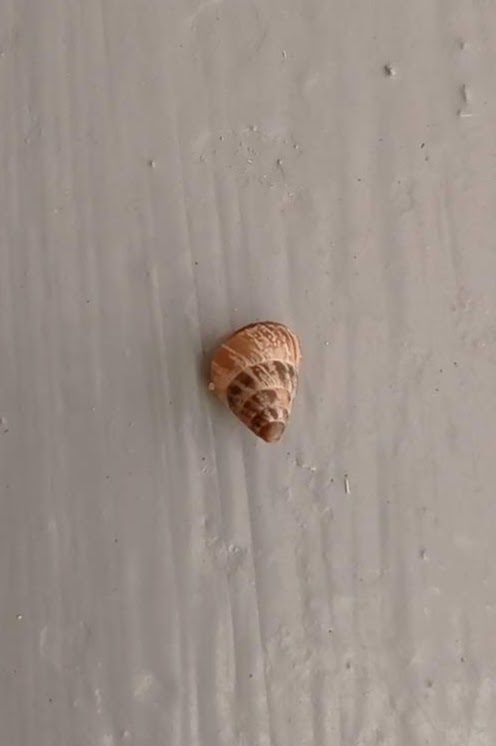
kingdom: Animalia
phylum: Mollusca
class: Gastropoda
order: Stylommatophora
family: Geomitridae
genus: Cochlicella
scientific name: Cochlicella barbara
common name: Potbellied helicellid
